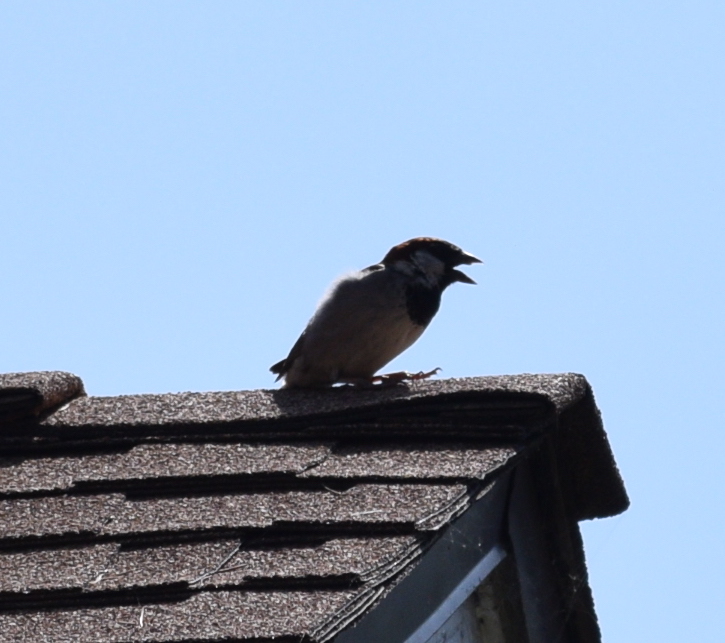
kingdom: Animalia
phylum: Chordata
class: Aves
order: Passeriformes
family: Passeridae
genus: Passer
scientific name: Passer domesticus
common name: House sparrow
